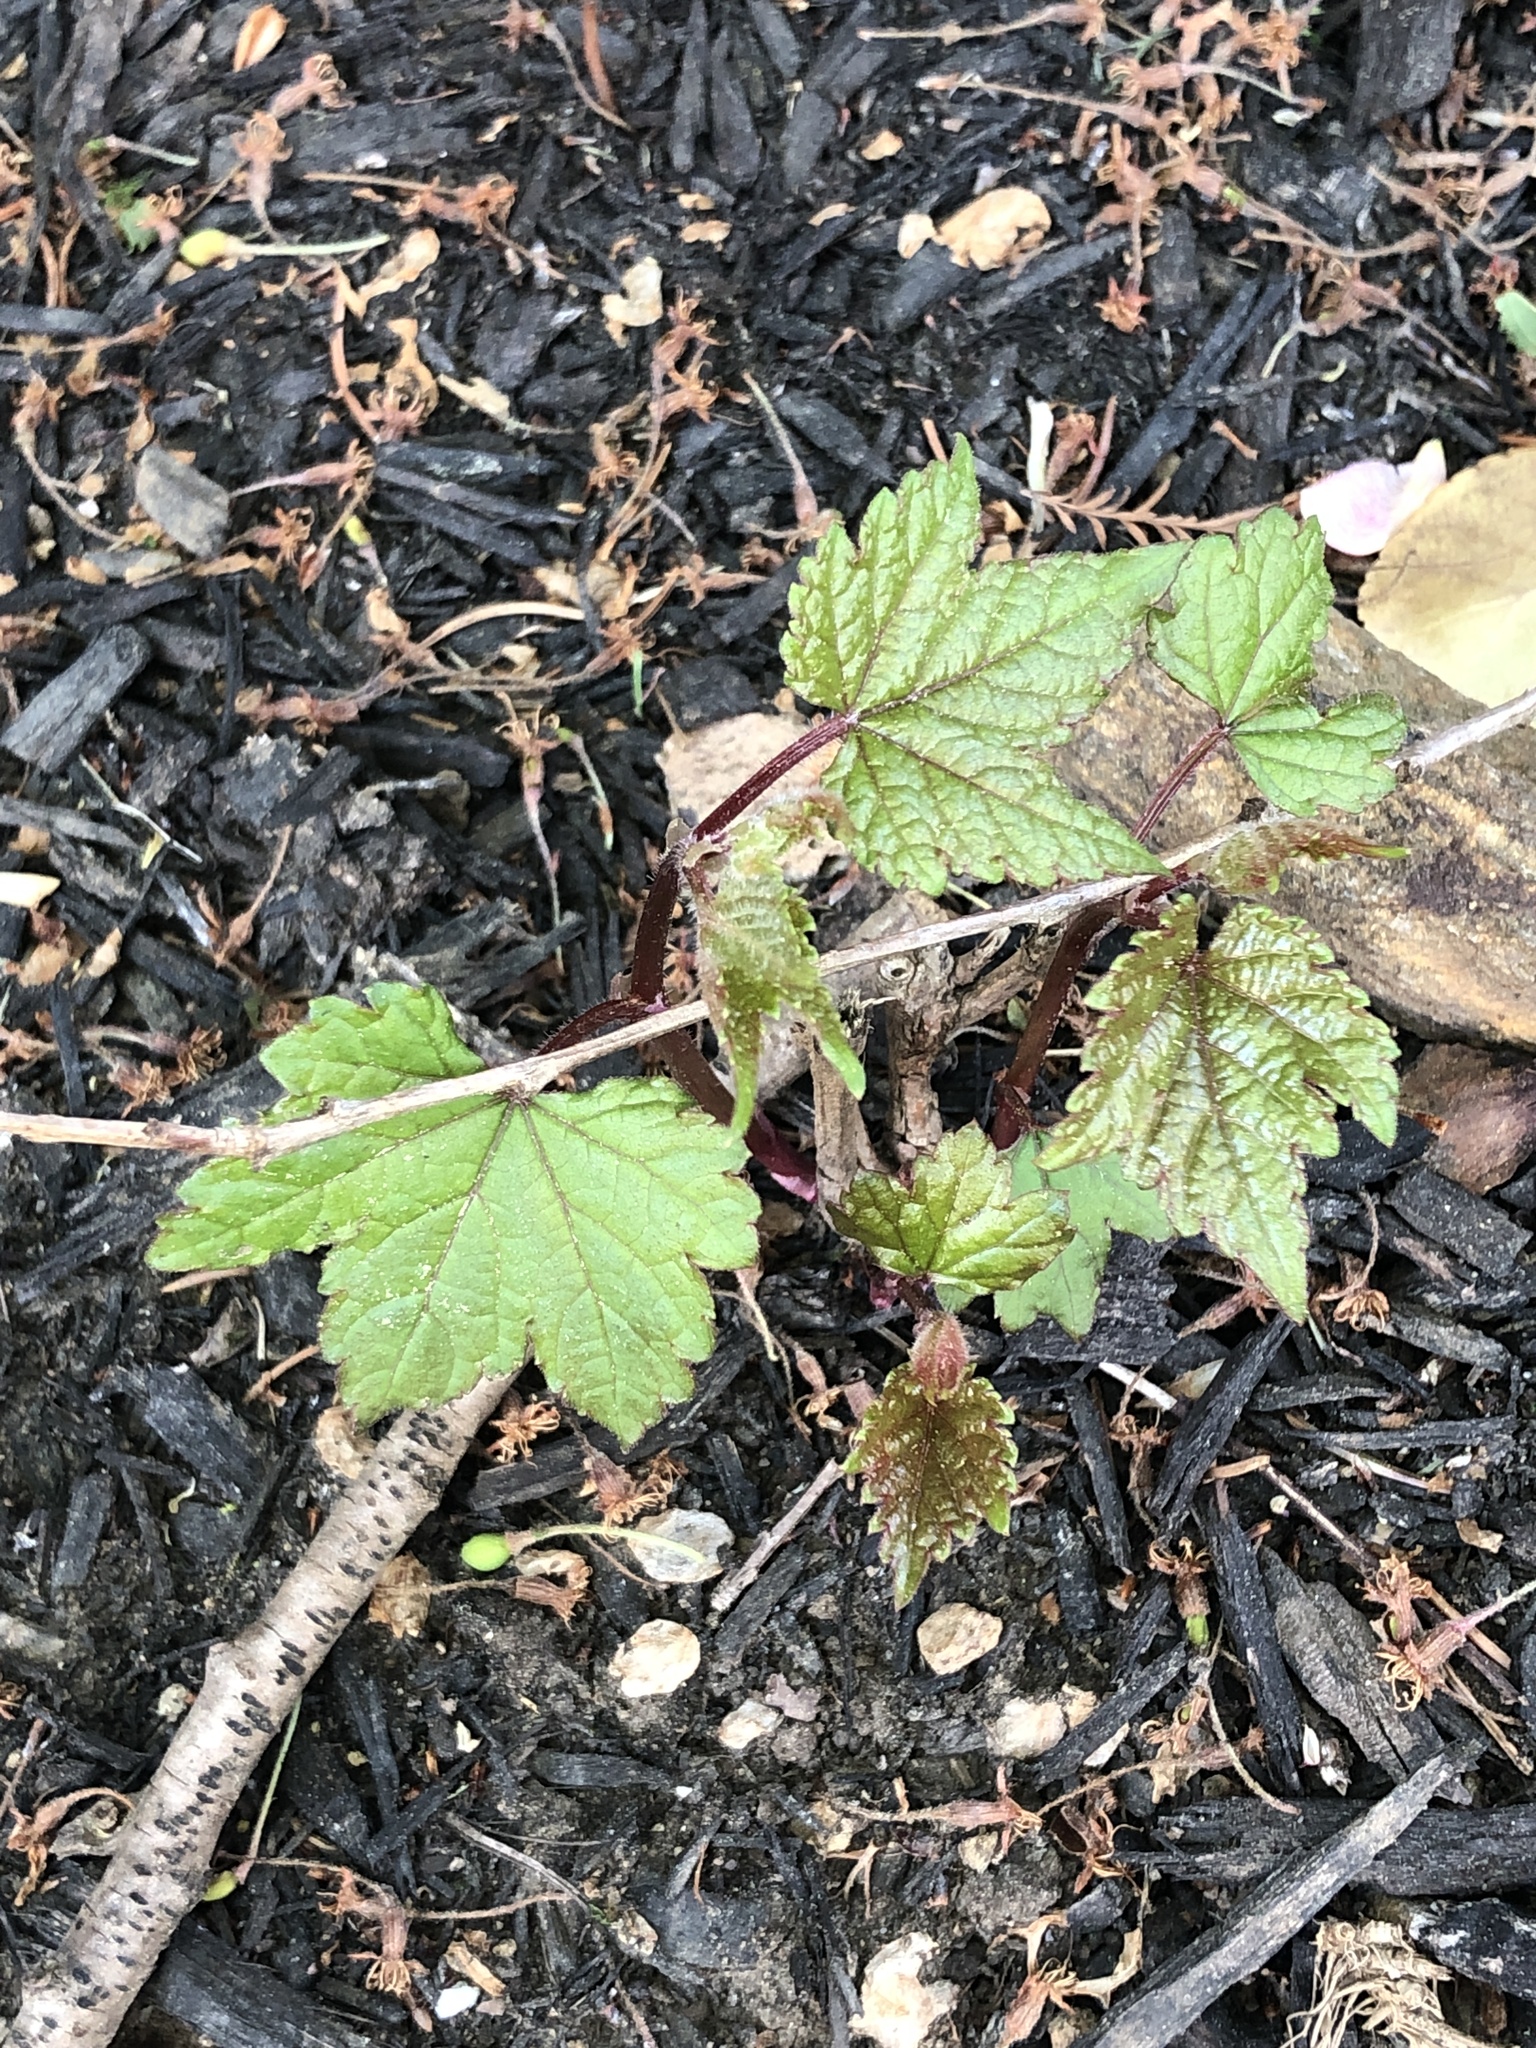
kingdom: Plantae
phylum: Tracheophyta
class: Magnoliopsida
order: Vitales
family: Vitaceae
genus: Ampelopsis
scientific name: Ampelopsis glandulosa
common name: Amur peppervine
